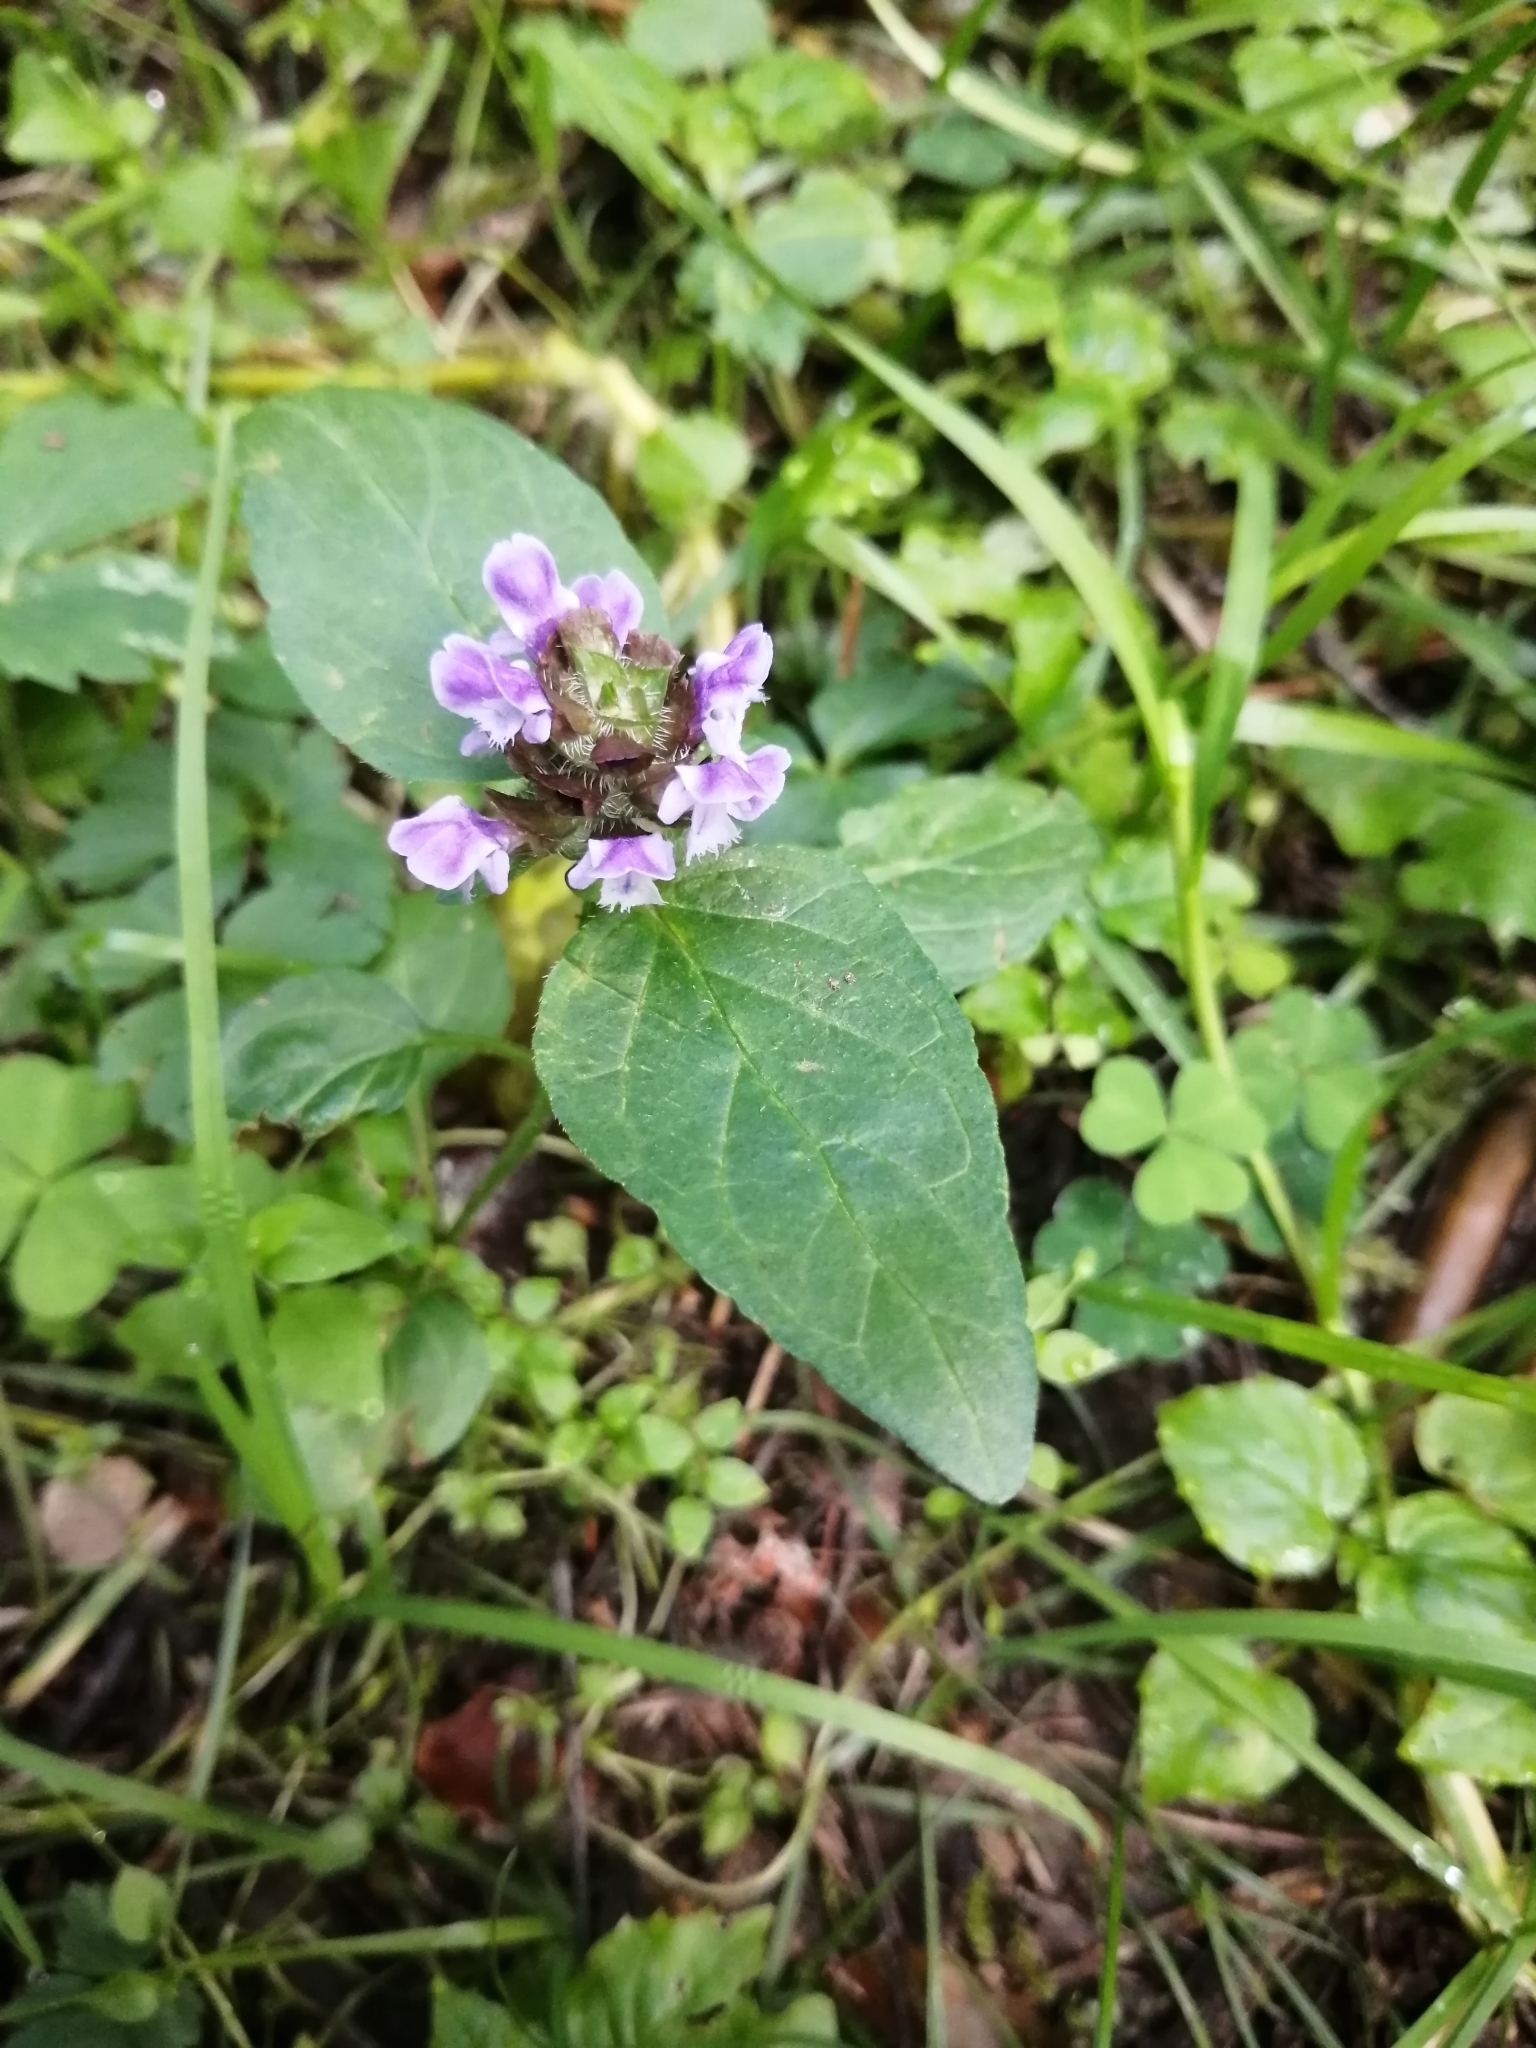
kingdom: Plantae
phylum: Tracheophyta
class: Magnoliopsida
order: Lamiales
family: Lamiaceae
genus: Prunella
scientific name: Prunella vulgaris
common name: Heal-all
